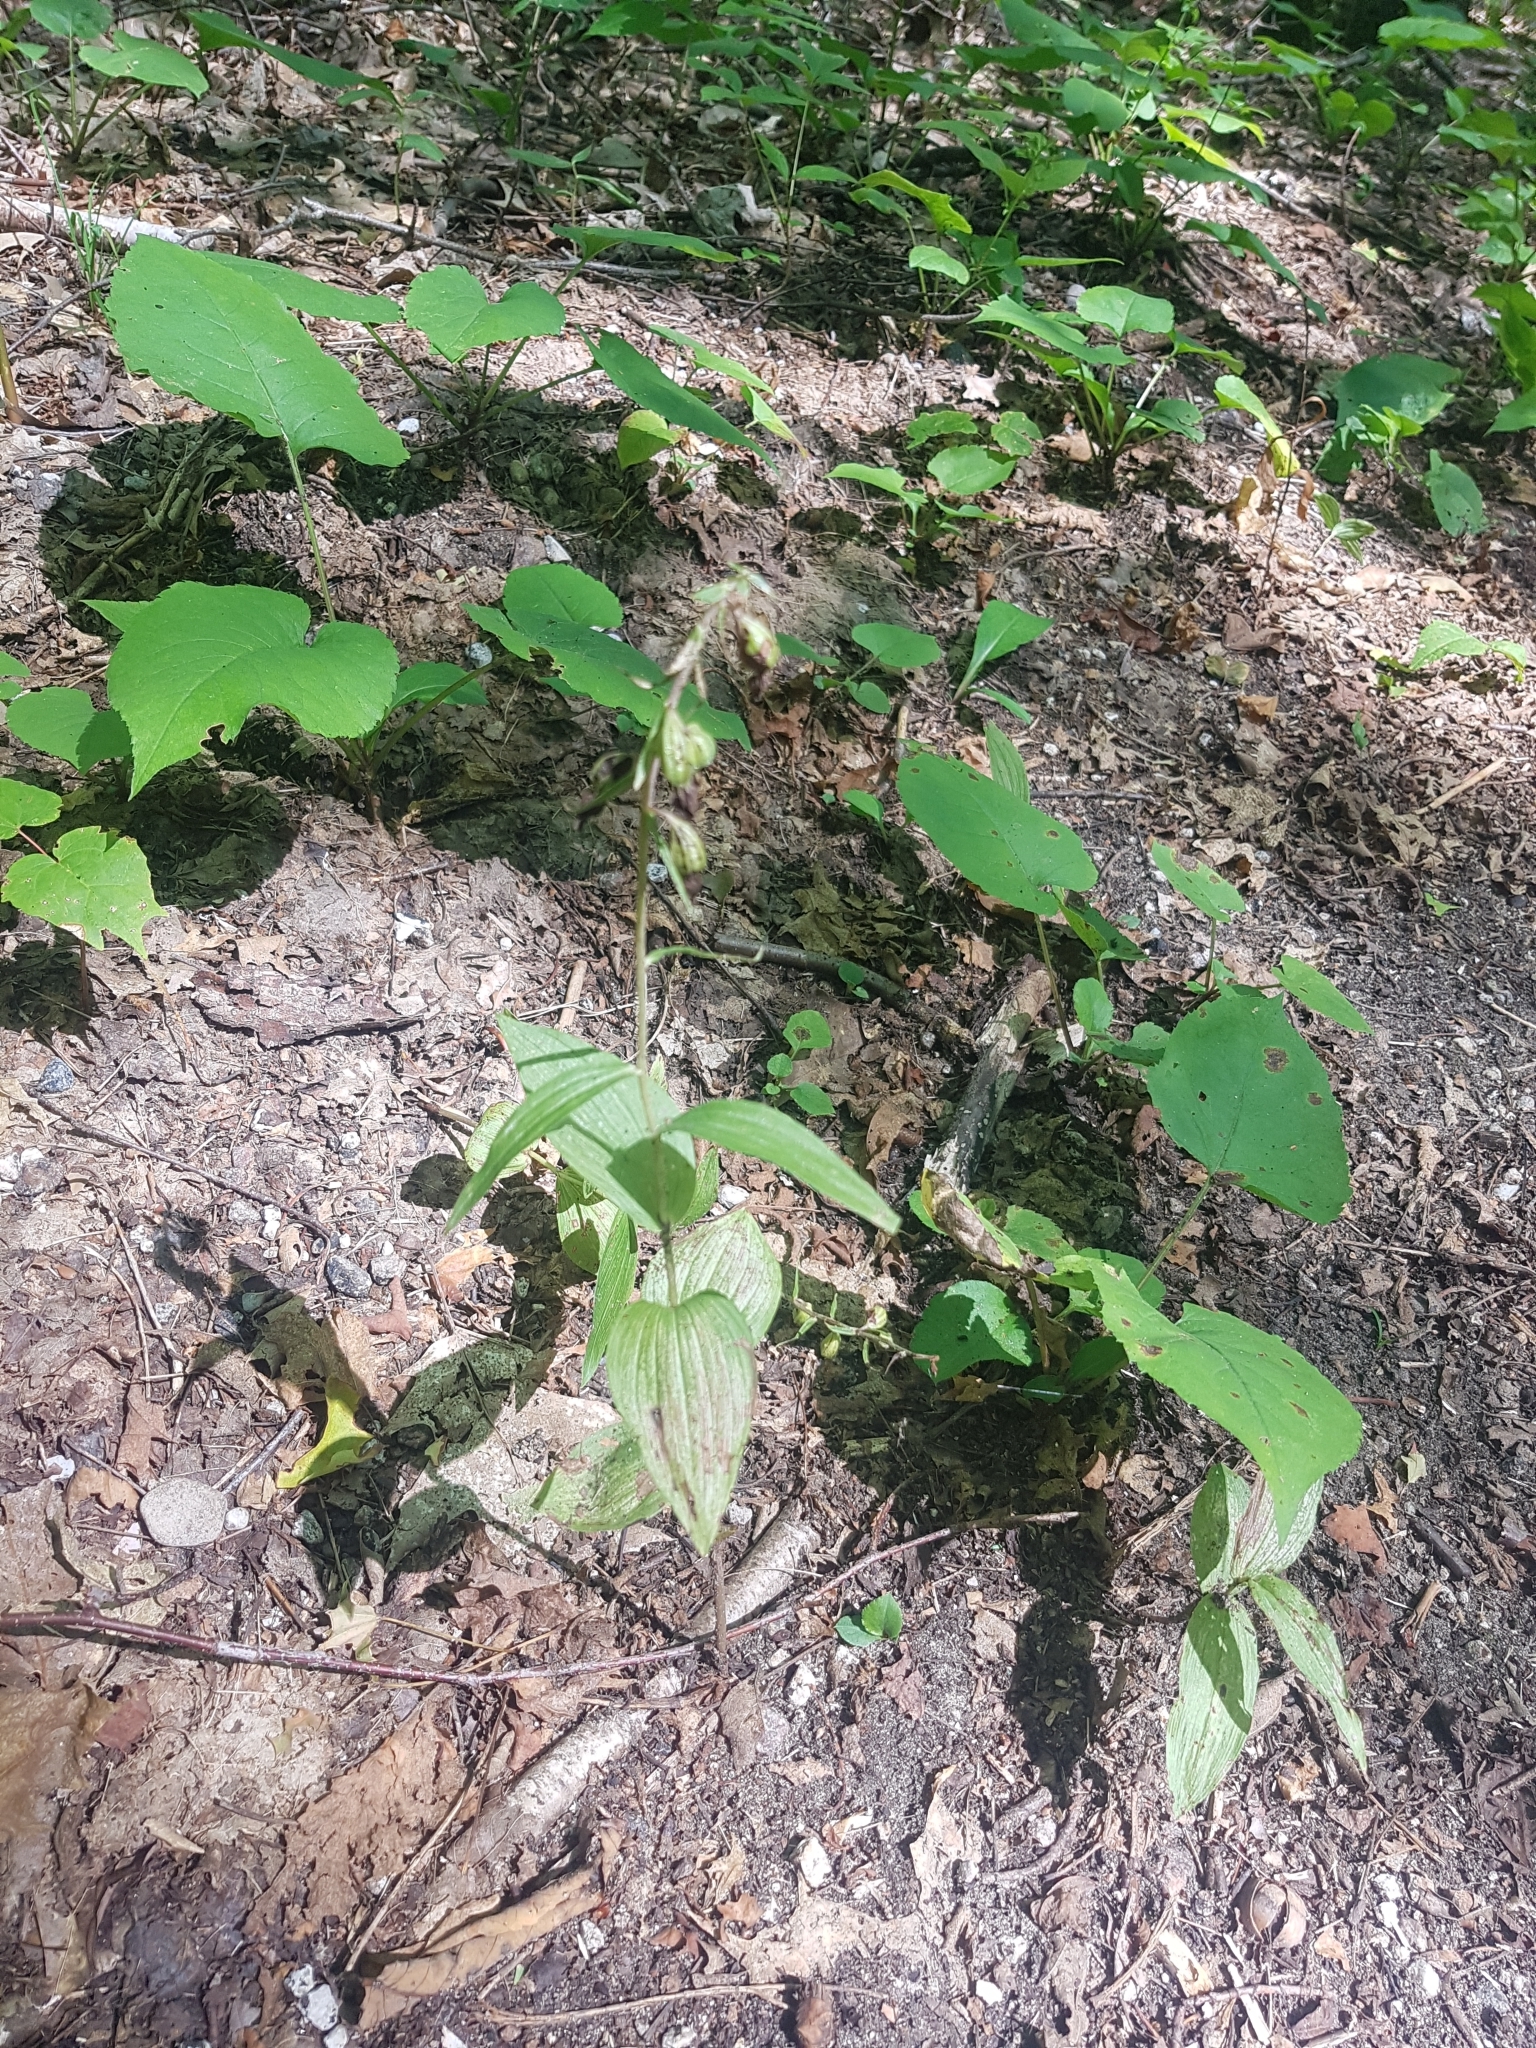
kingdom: Plantae
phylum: Tracheophyta
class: Liliopsida
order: Asparagales
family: Orchidaceae
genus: Epipactis
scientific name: Epipactis helleborine
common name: Broad-leaved helleborine
